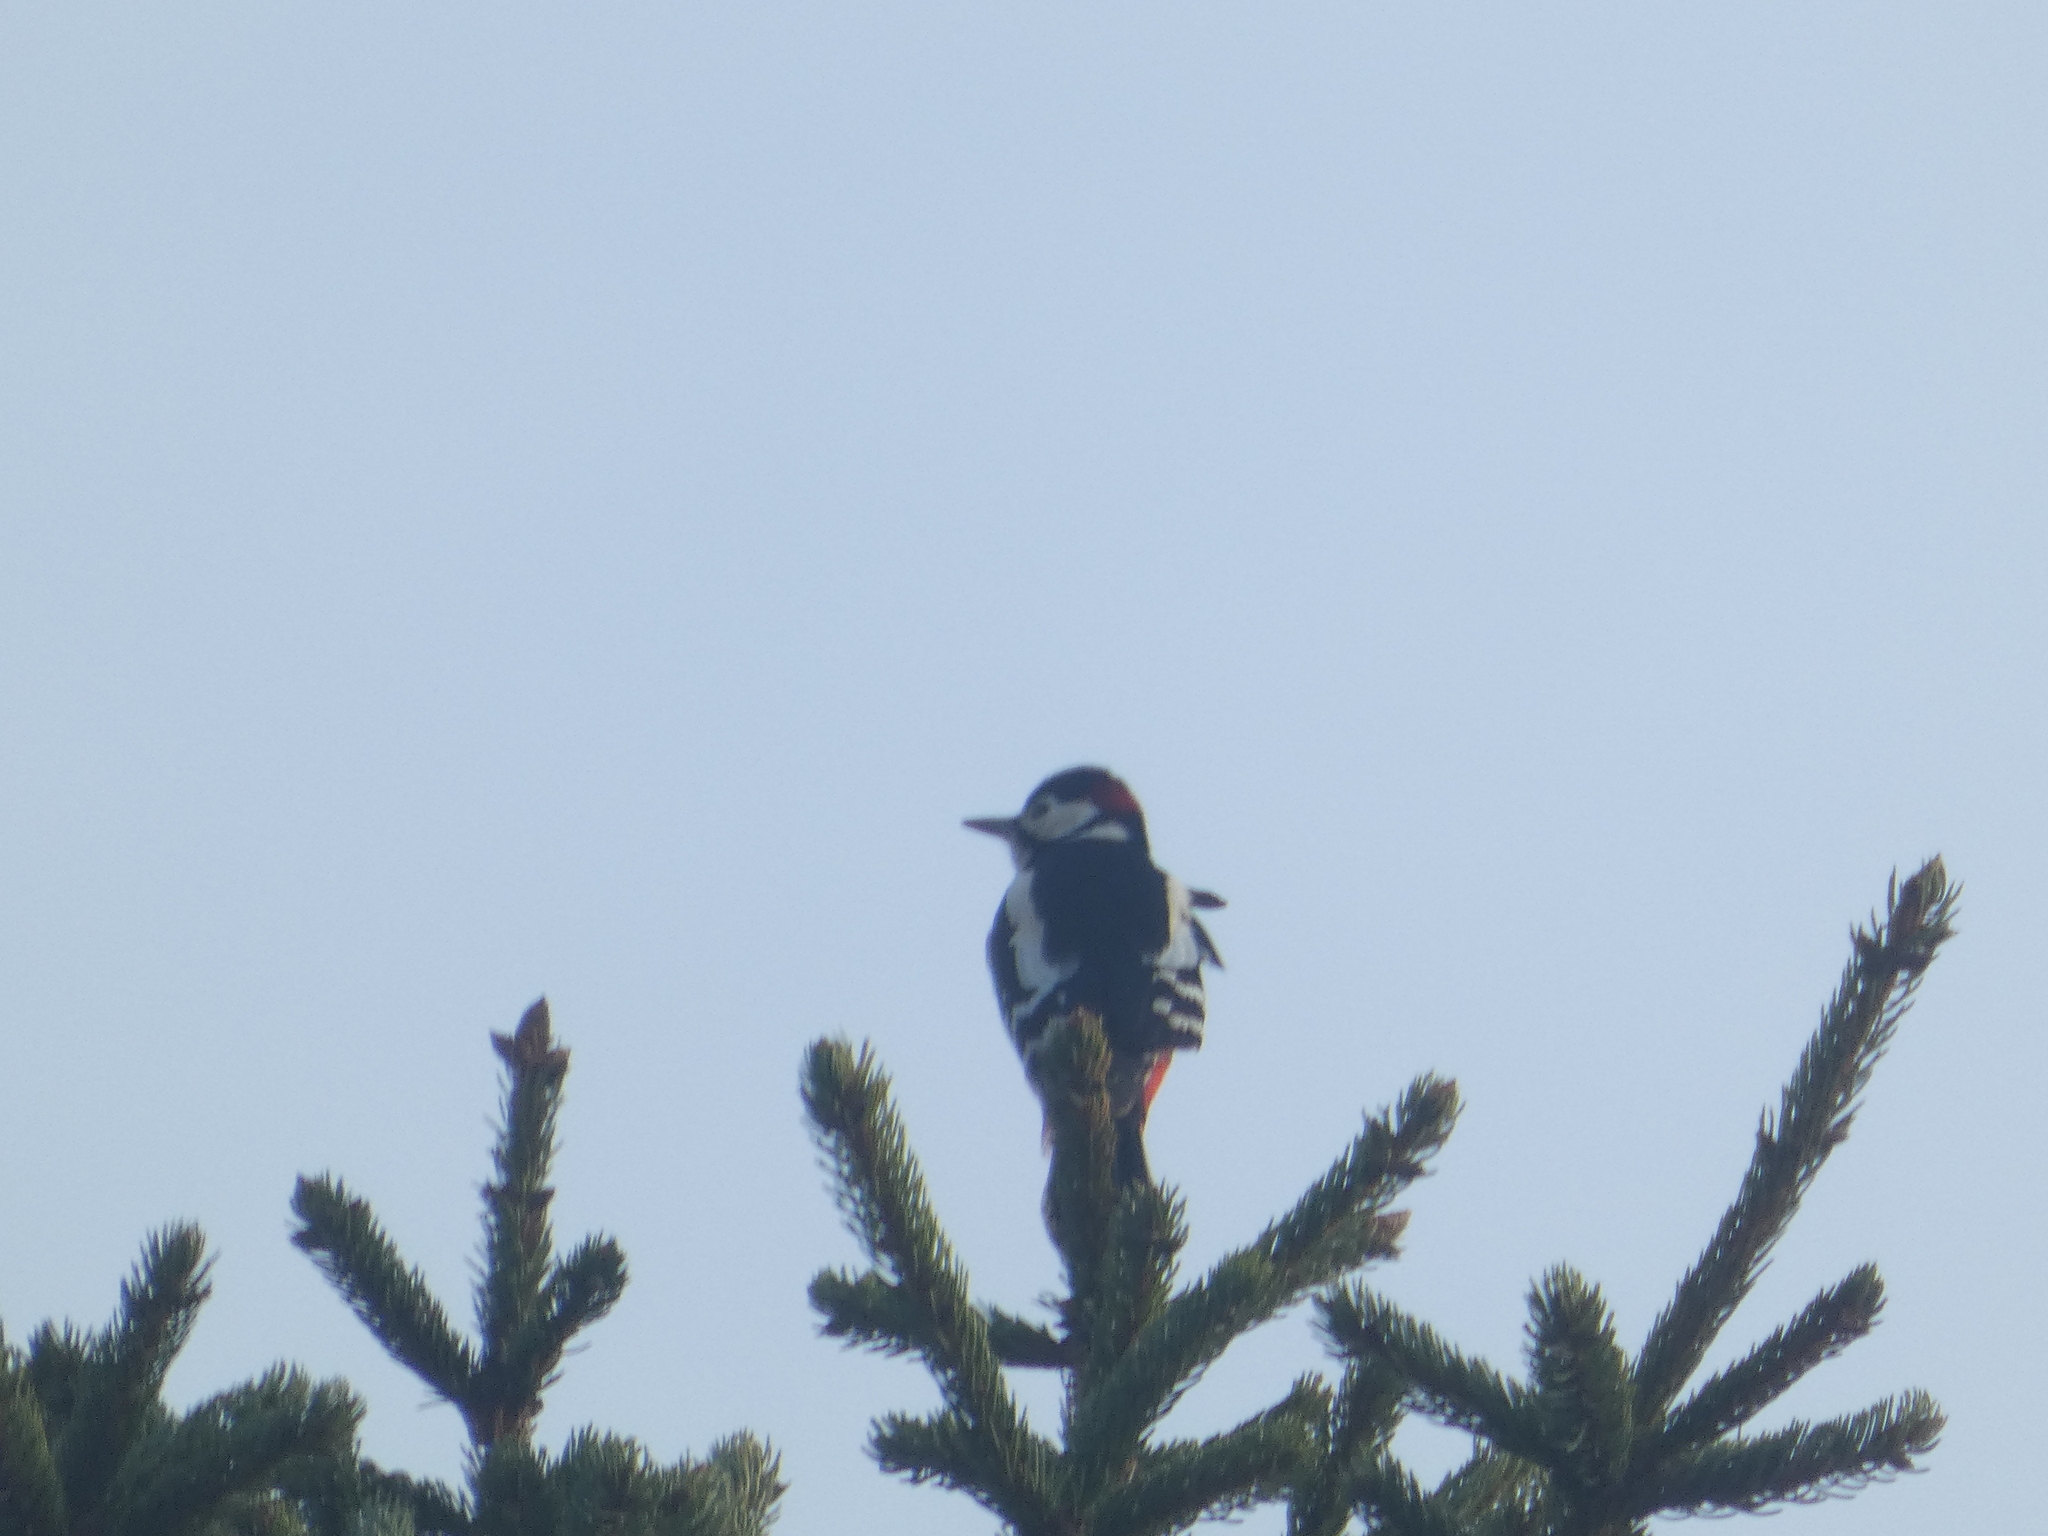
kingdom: Animalia
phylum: Chordata
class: Aves
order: Piciformes
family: Picidae
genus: Dendrocopos
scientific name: Dendrocopos major
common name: Great spotted woodpecker
